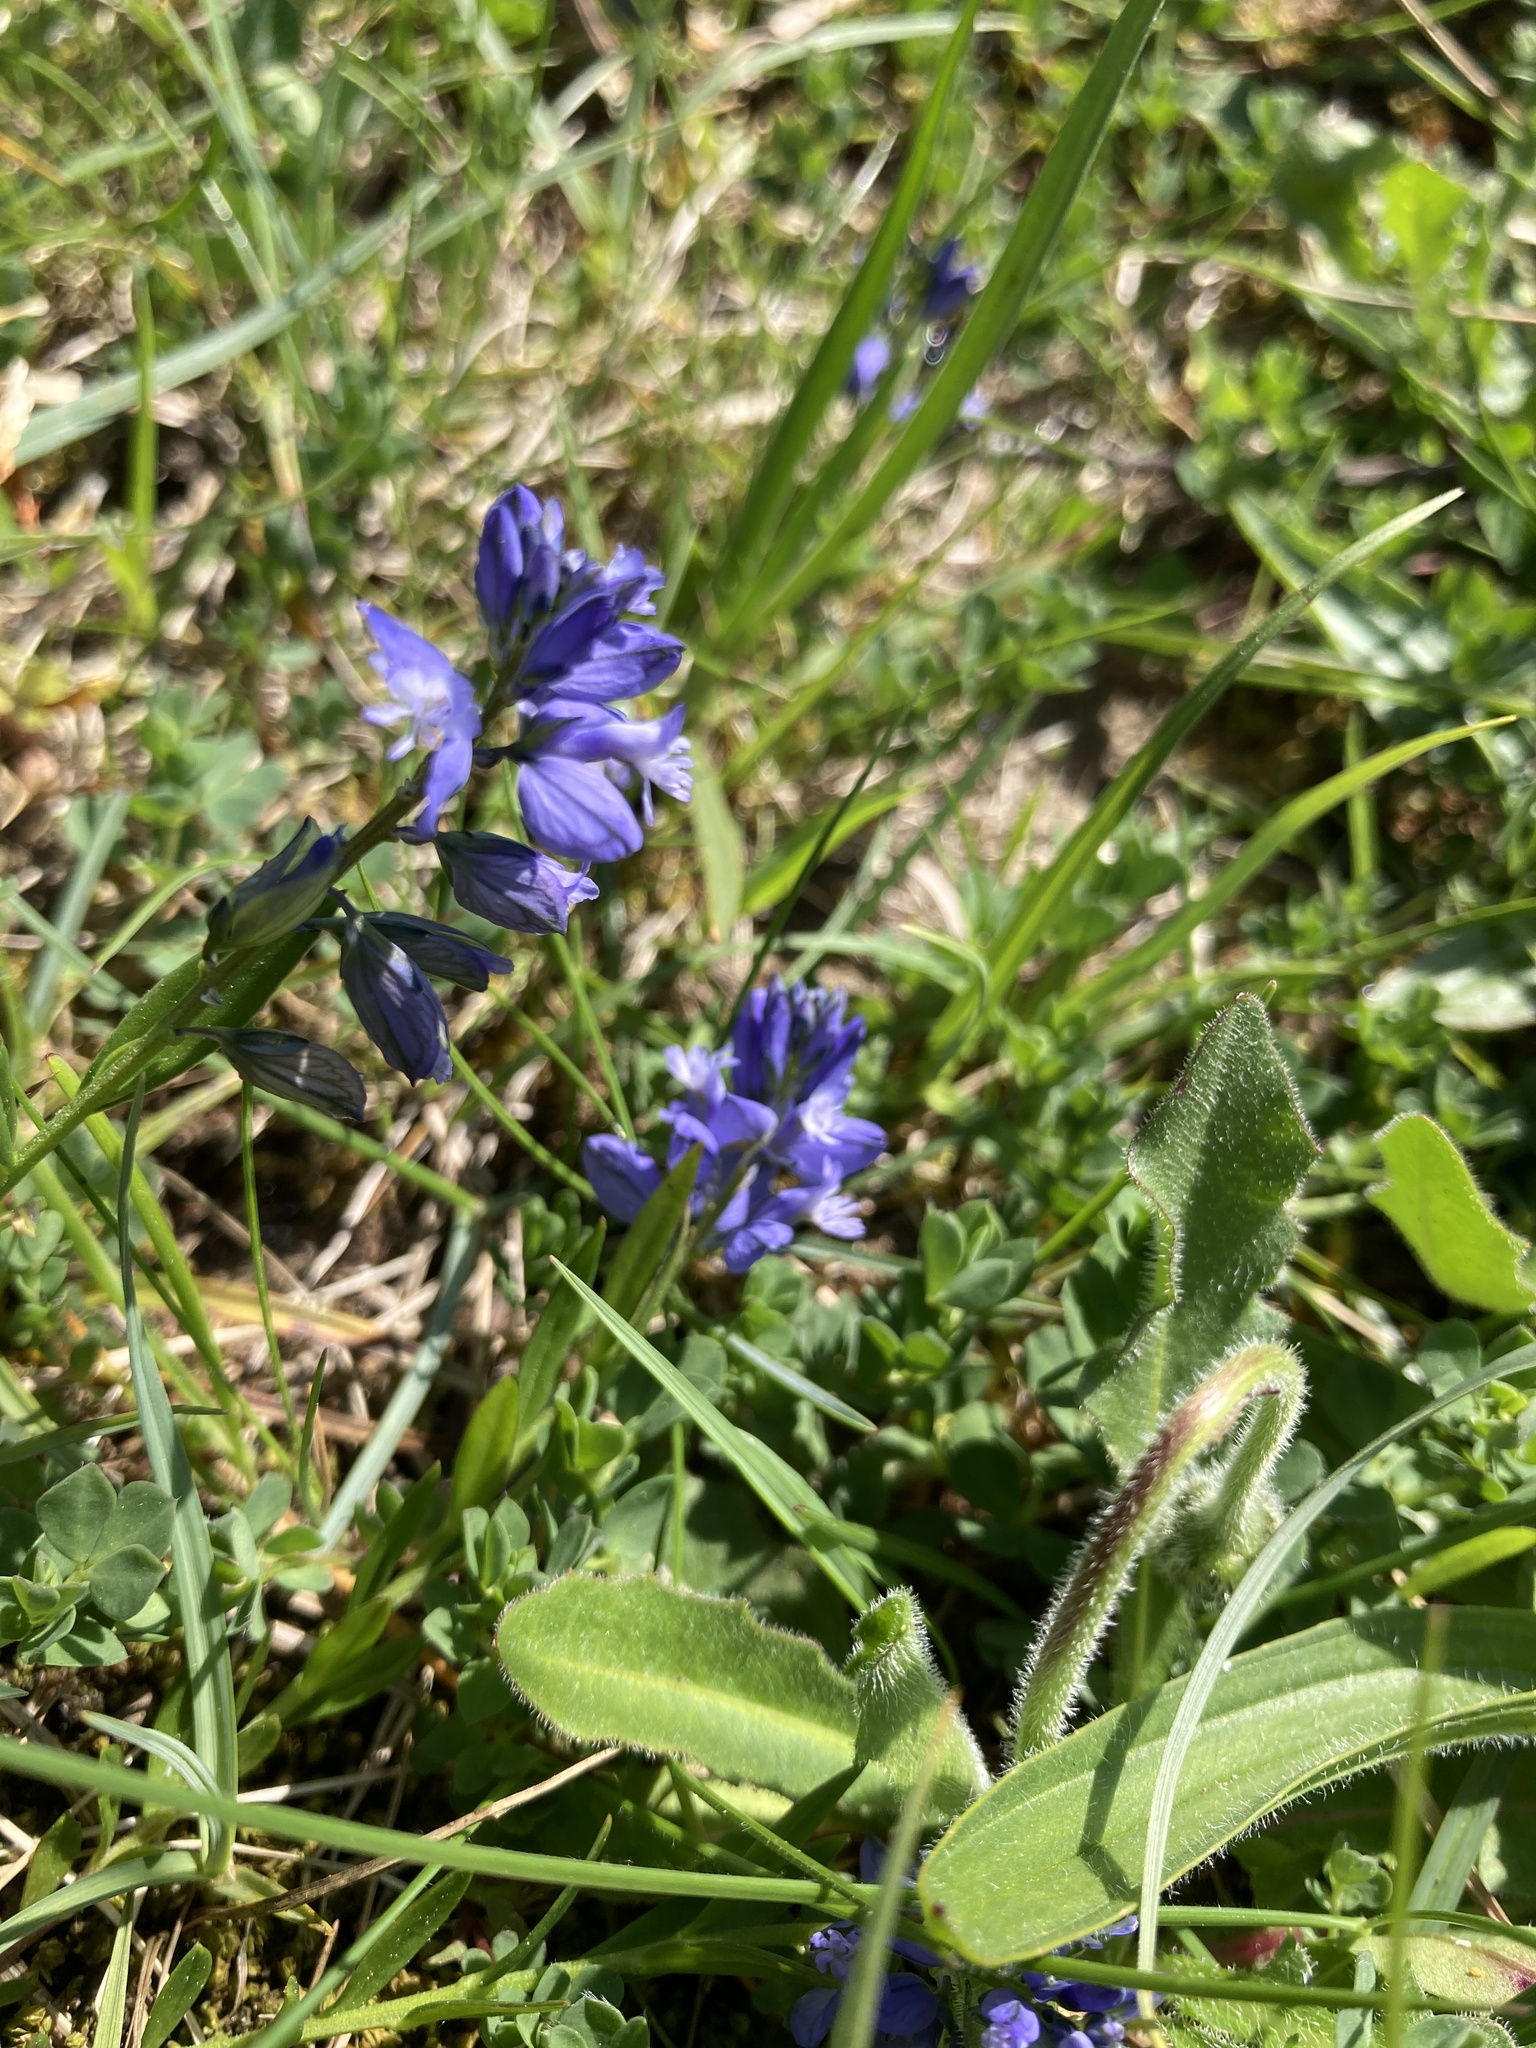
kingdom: Plantae
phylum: Tracheophyta
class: Magnoliopsida
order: Fabales
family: Polygalaceae
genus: Polygala
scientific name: Polygala vulgaris
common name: Common milkwort
